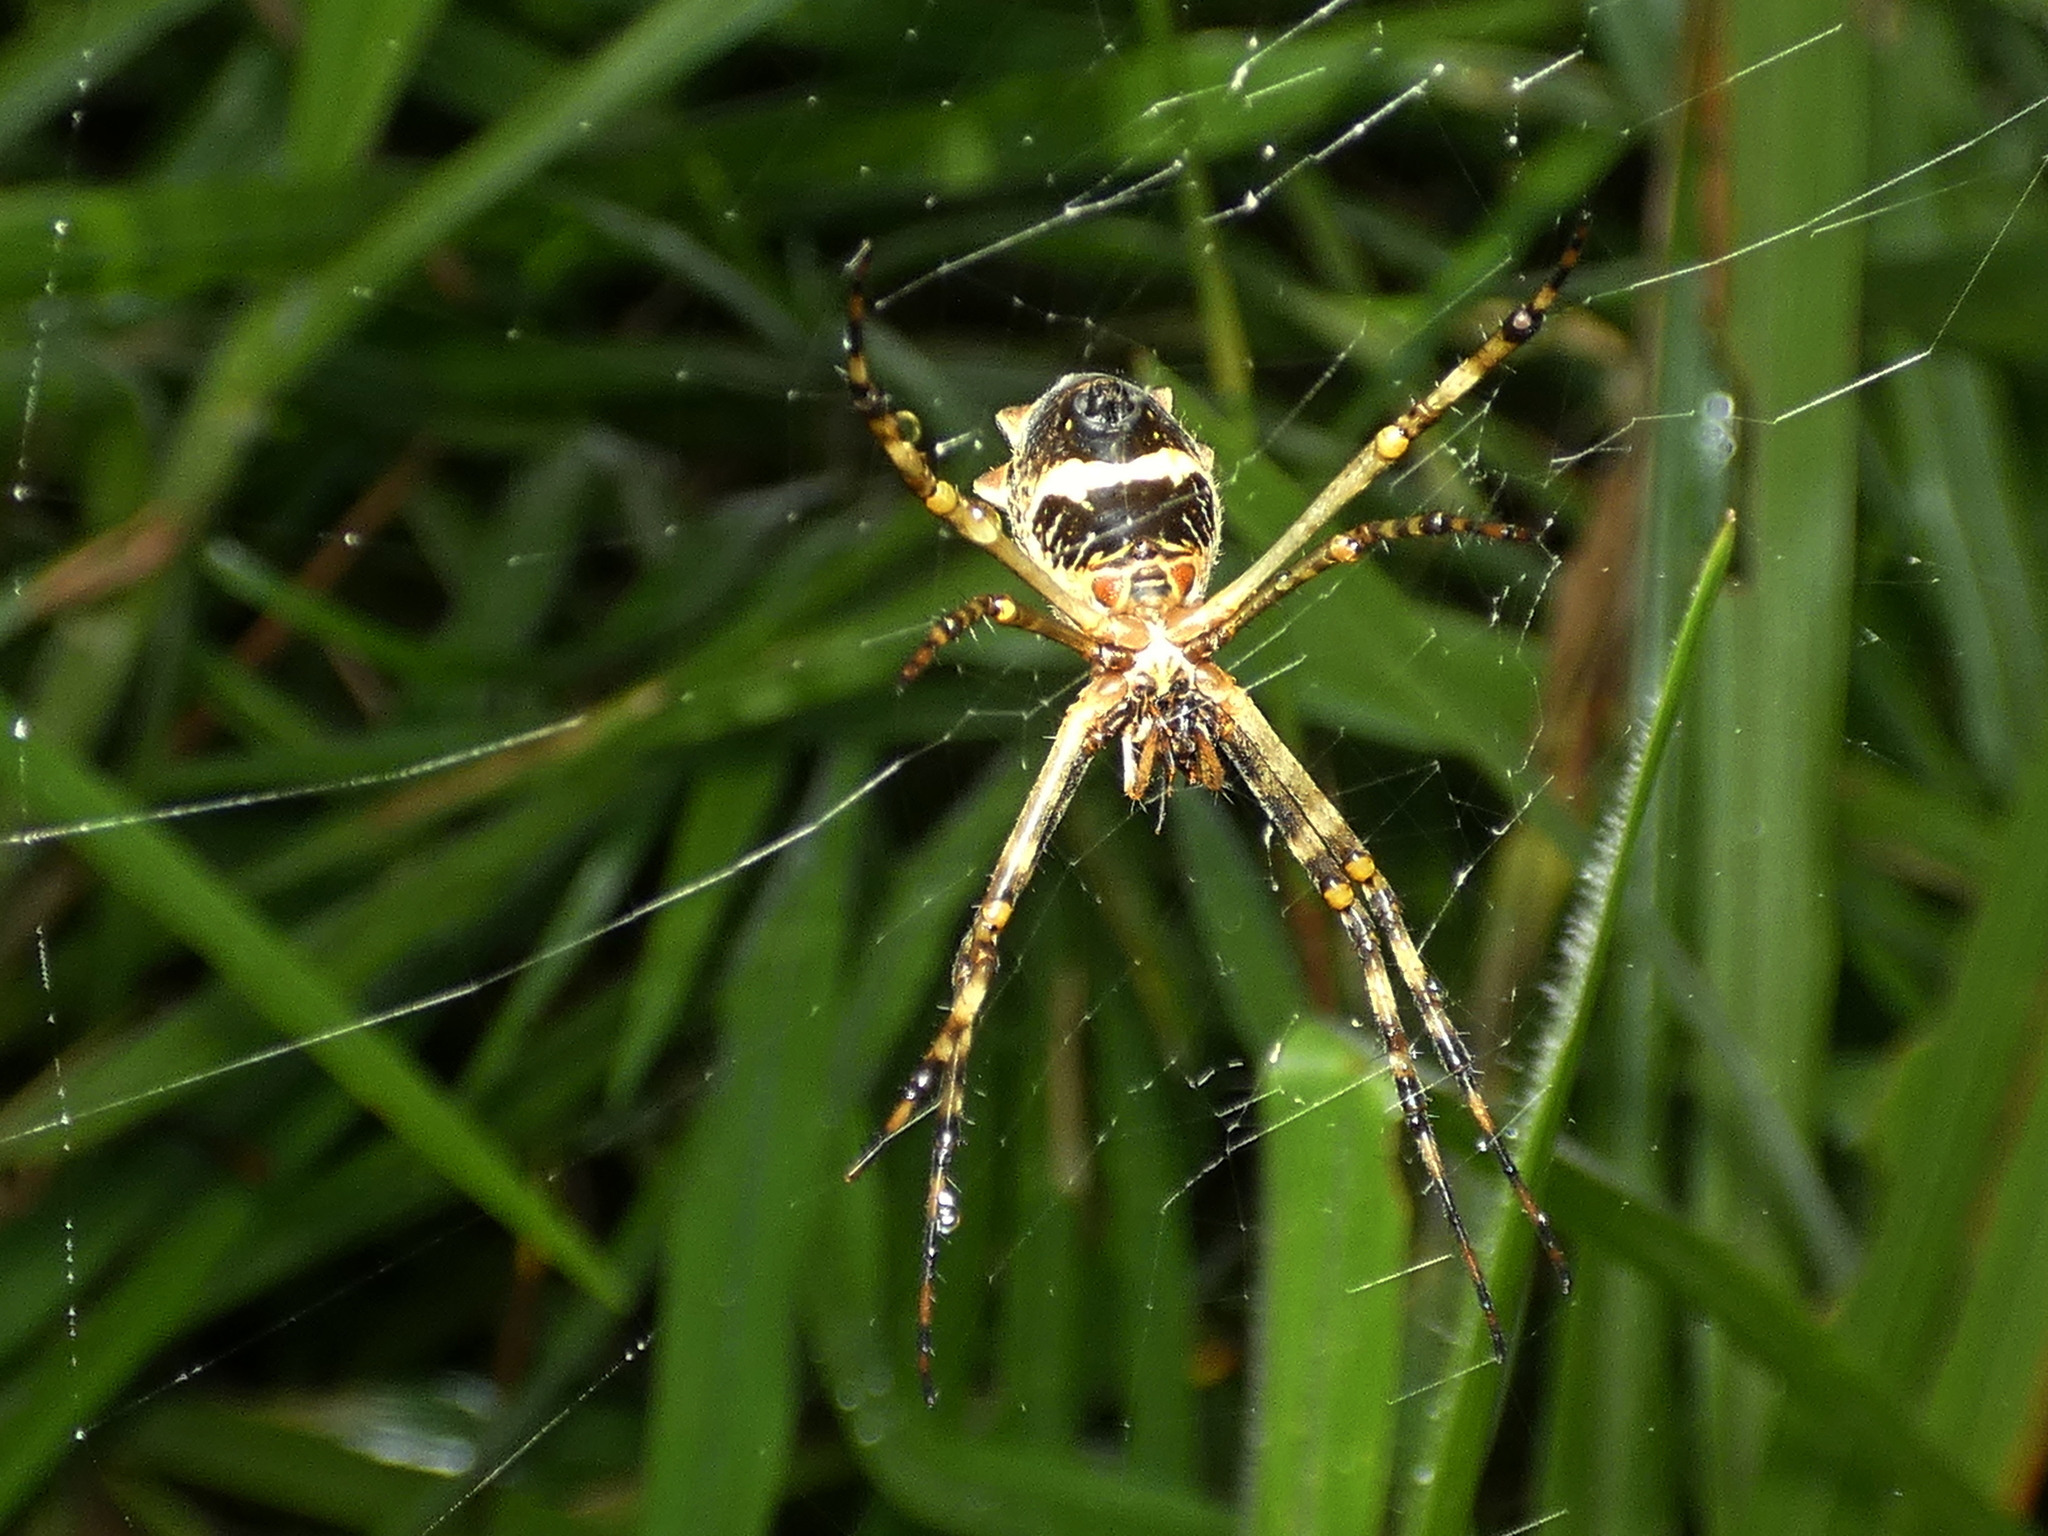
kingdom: Animalia
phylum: Arthropoda
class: Arachnida
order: Araneae
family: Araneidae
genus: Argiope
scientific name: Argiope argentata
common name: Orb weavers
